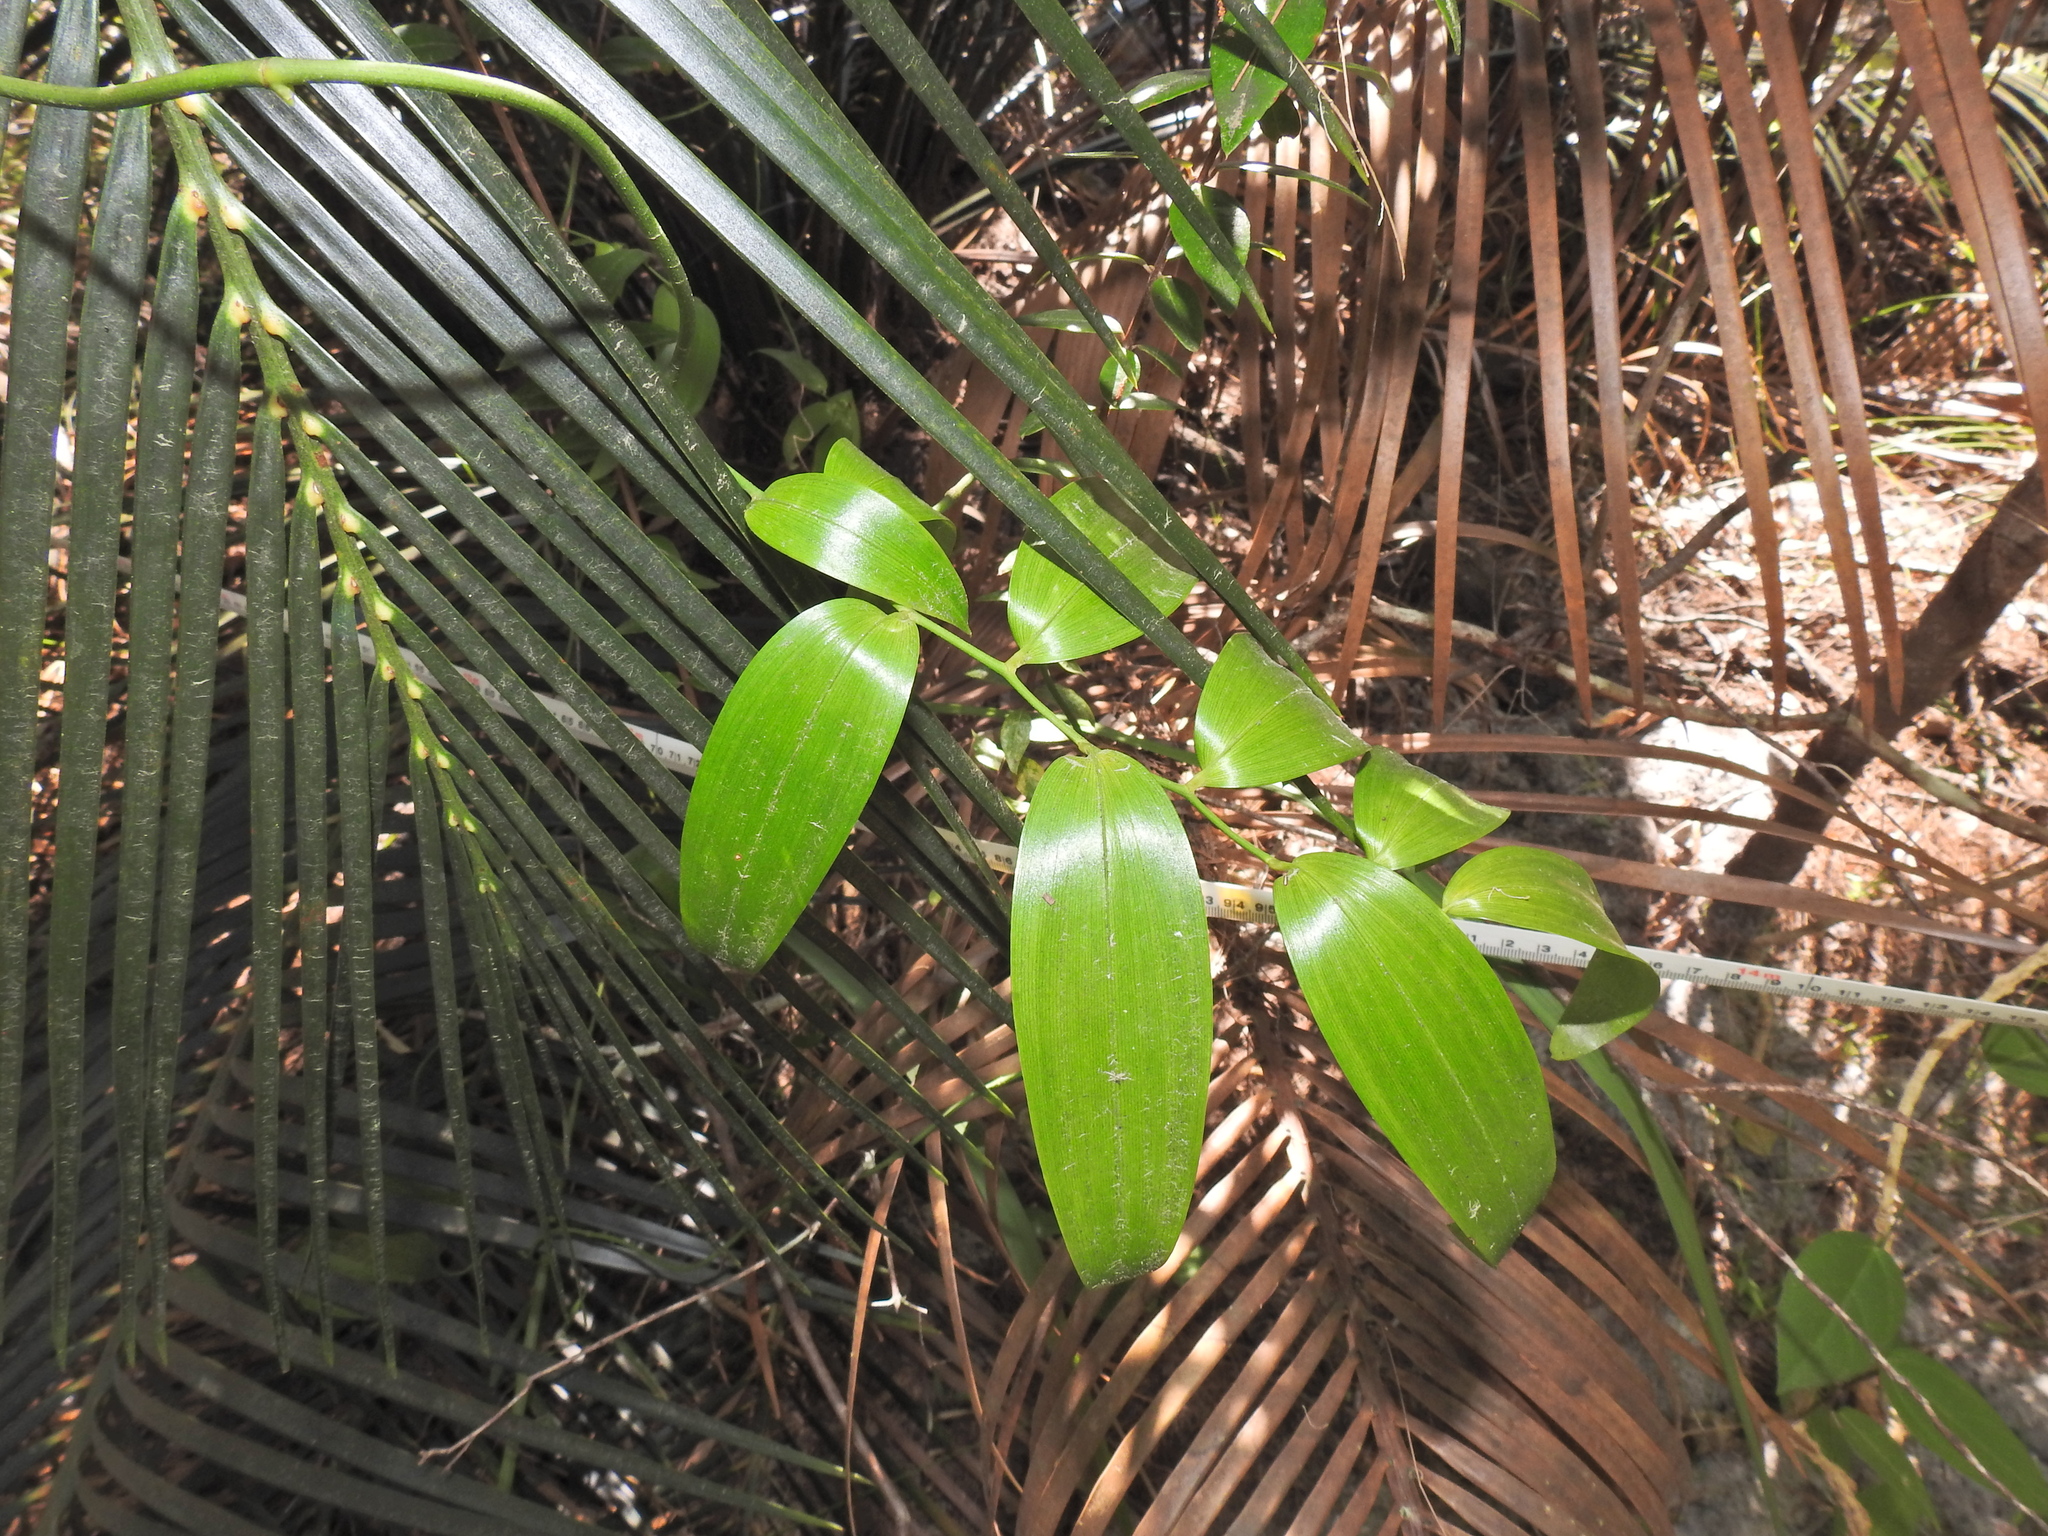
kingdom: Plantae
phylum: Tracheophyta
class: Liliopsida
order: Asparagales
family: Asphodelaceae
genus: Geitonoplesium
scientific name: Geitonoplesium cymosum
